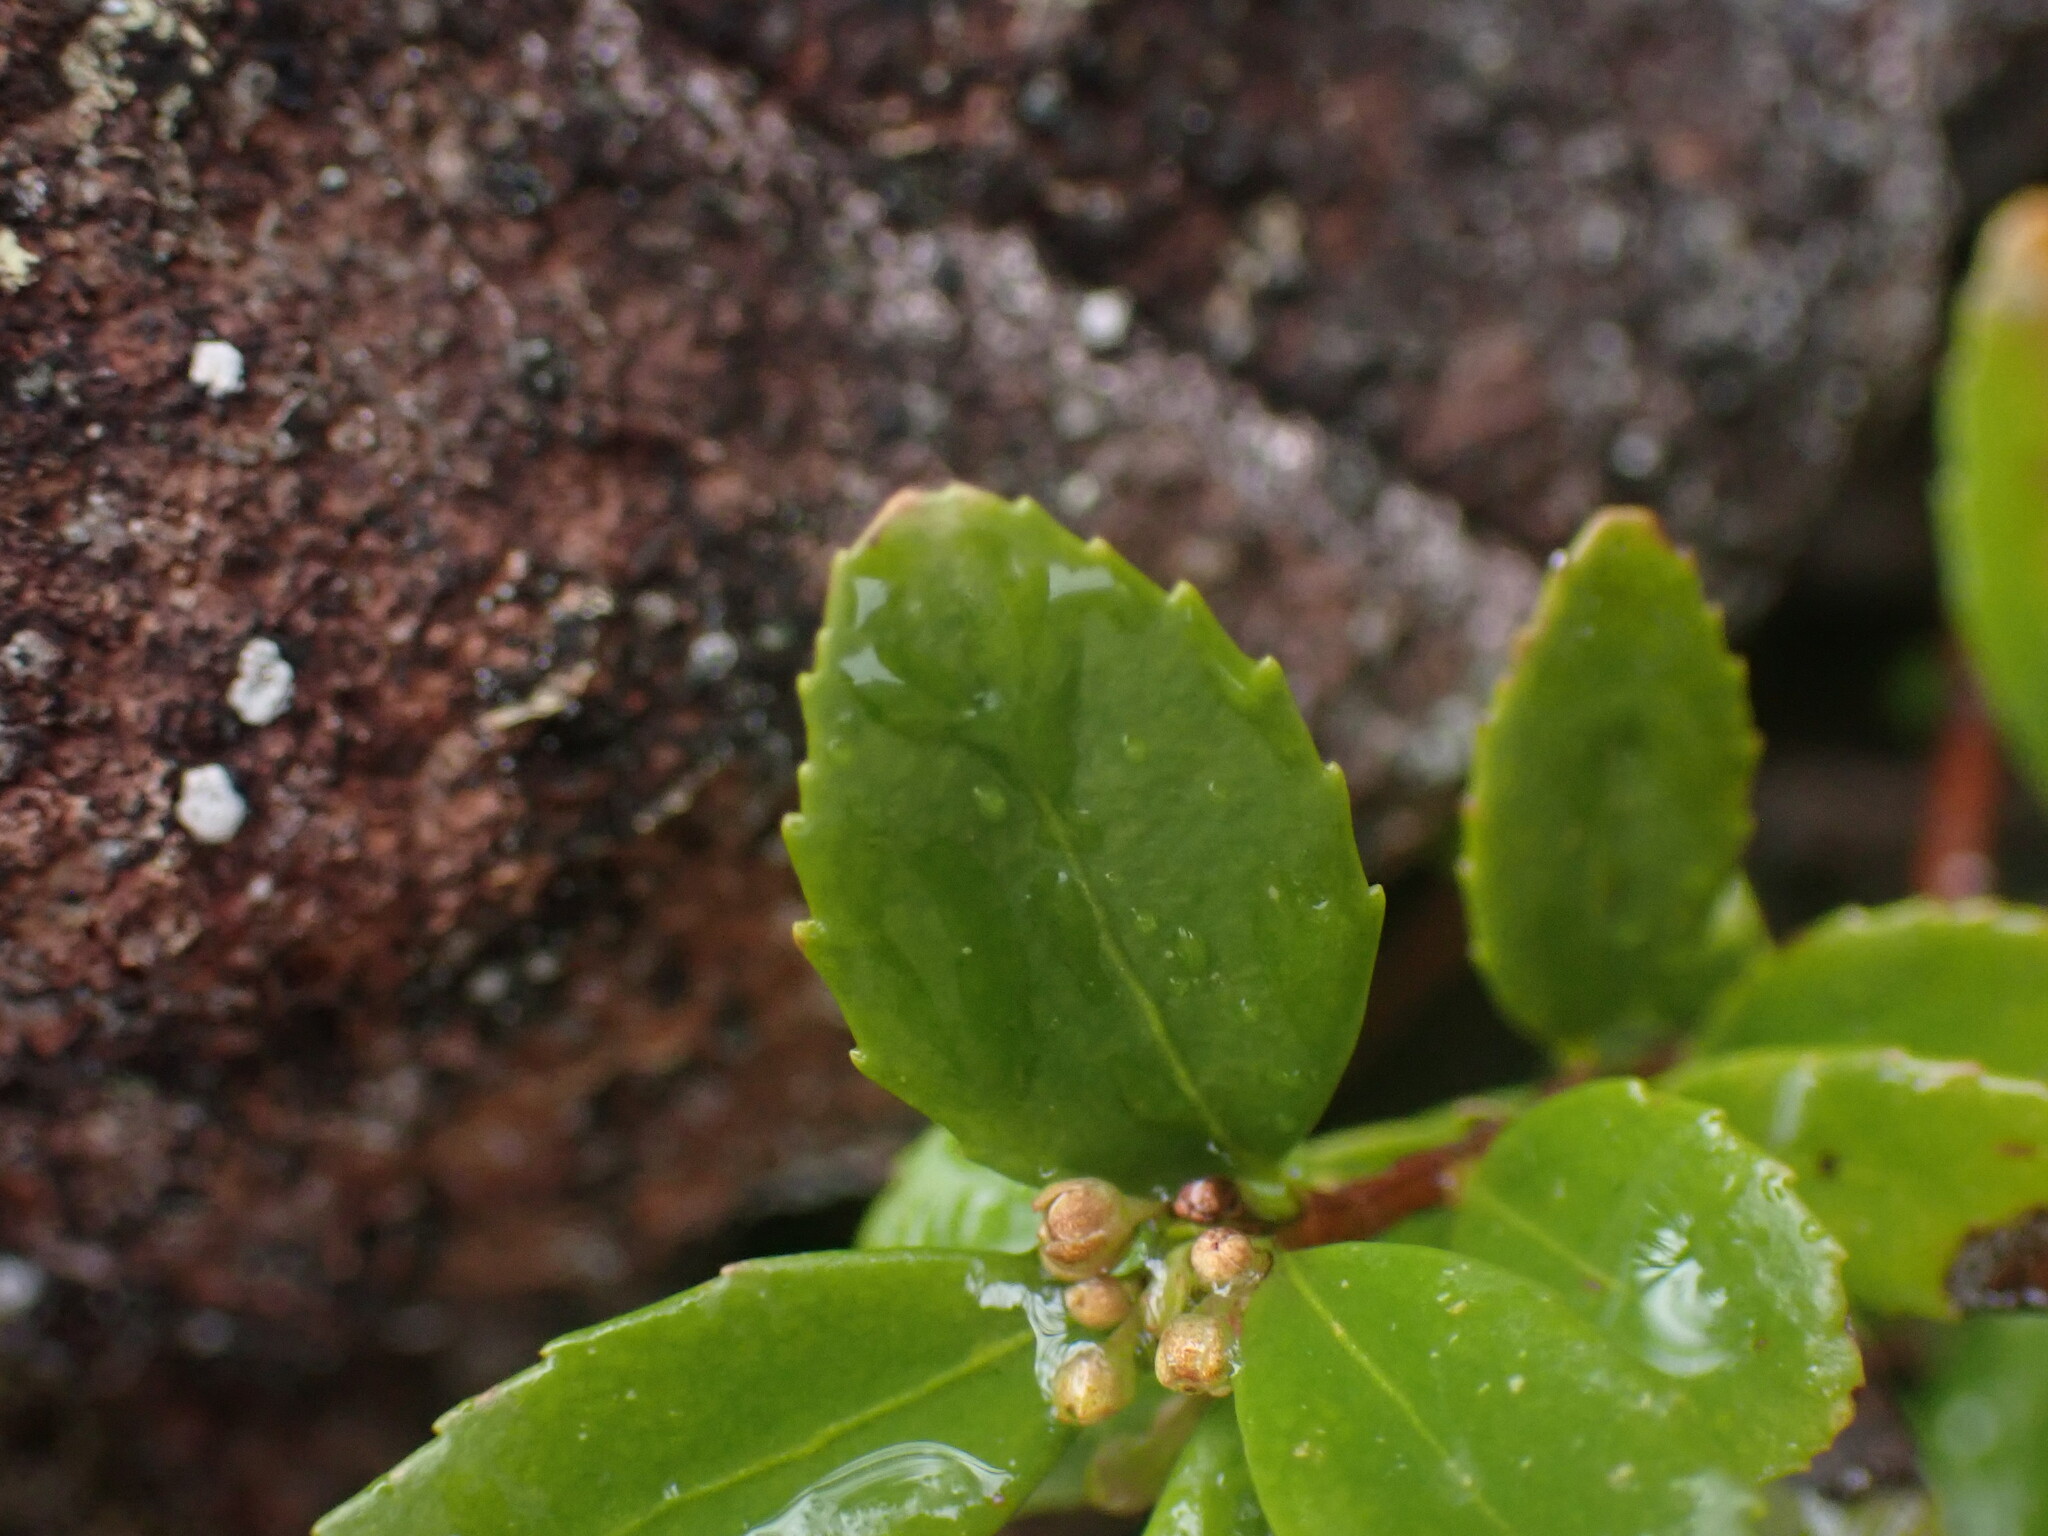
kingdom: Plantae
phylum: Tracheophyta
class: Magnoliopsida
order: Celastrales
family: Celastraceae
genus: Paxistima
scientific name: Paxistima myrsinites
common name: Mountain-lover
